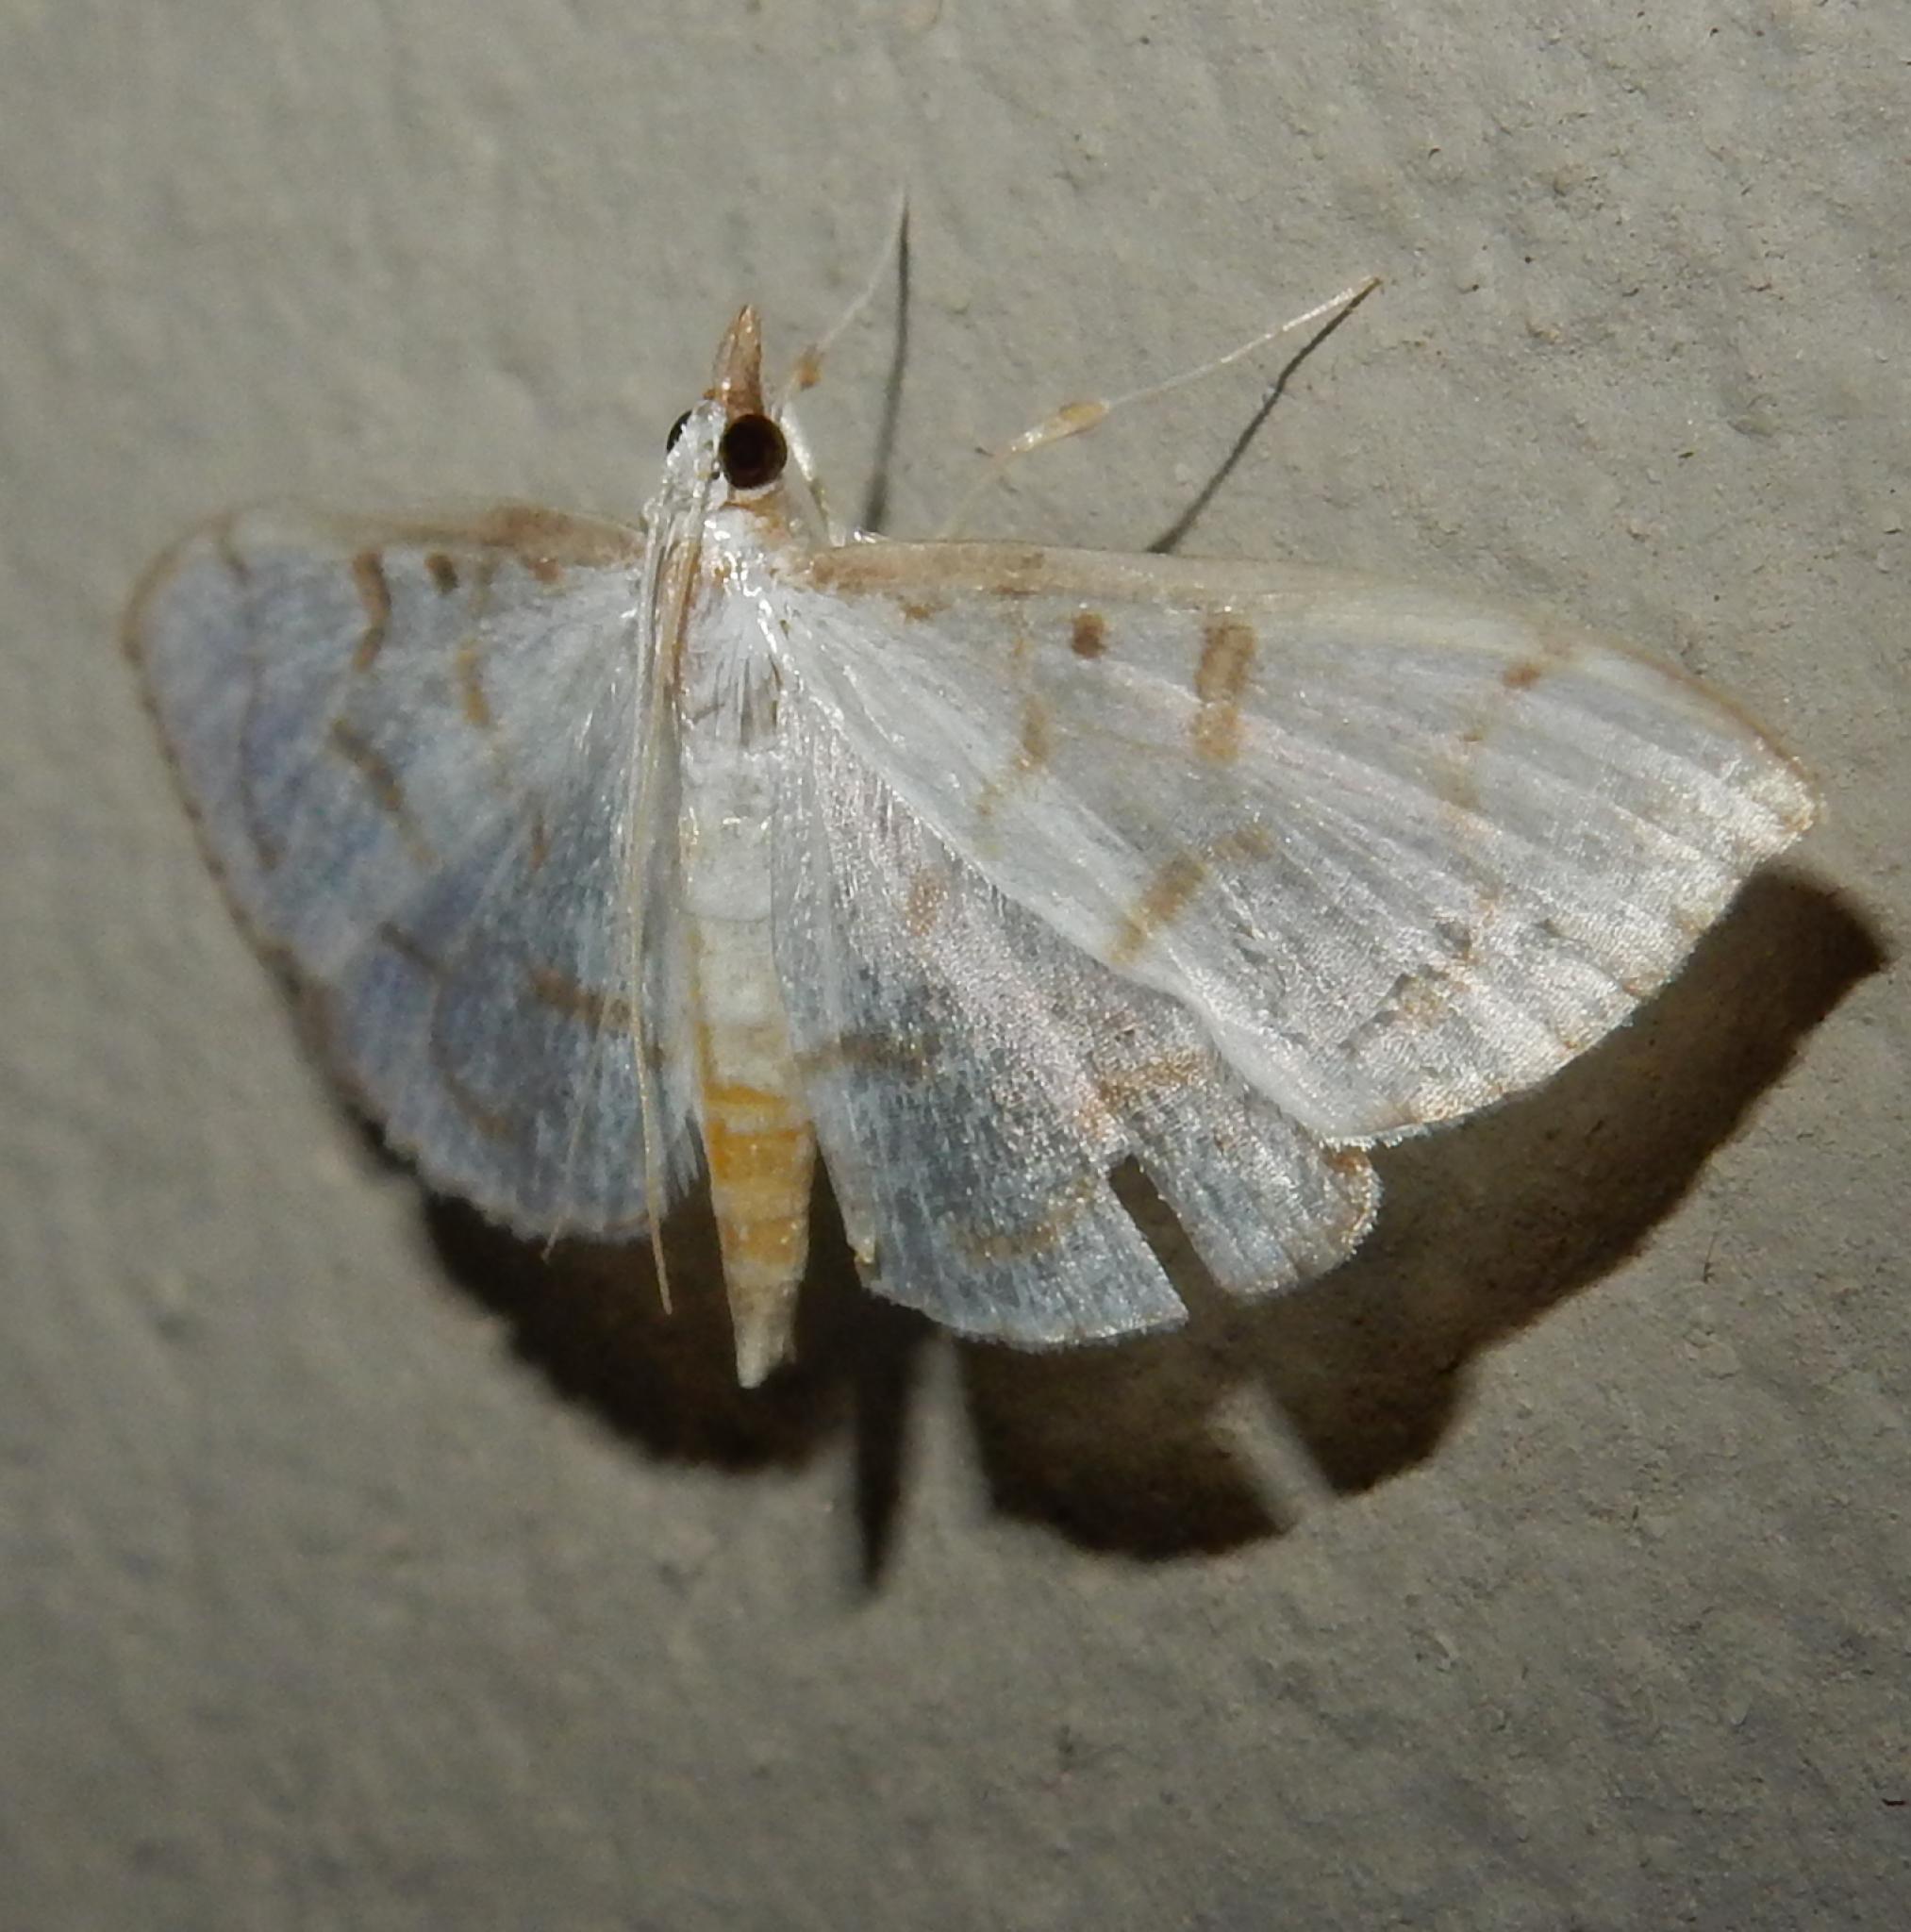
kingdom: Animalia
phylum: Arthropoda
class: Insecta
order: Lepidoptera
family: Crambidae
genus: Antigastra
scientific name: Antigastra morysalis
